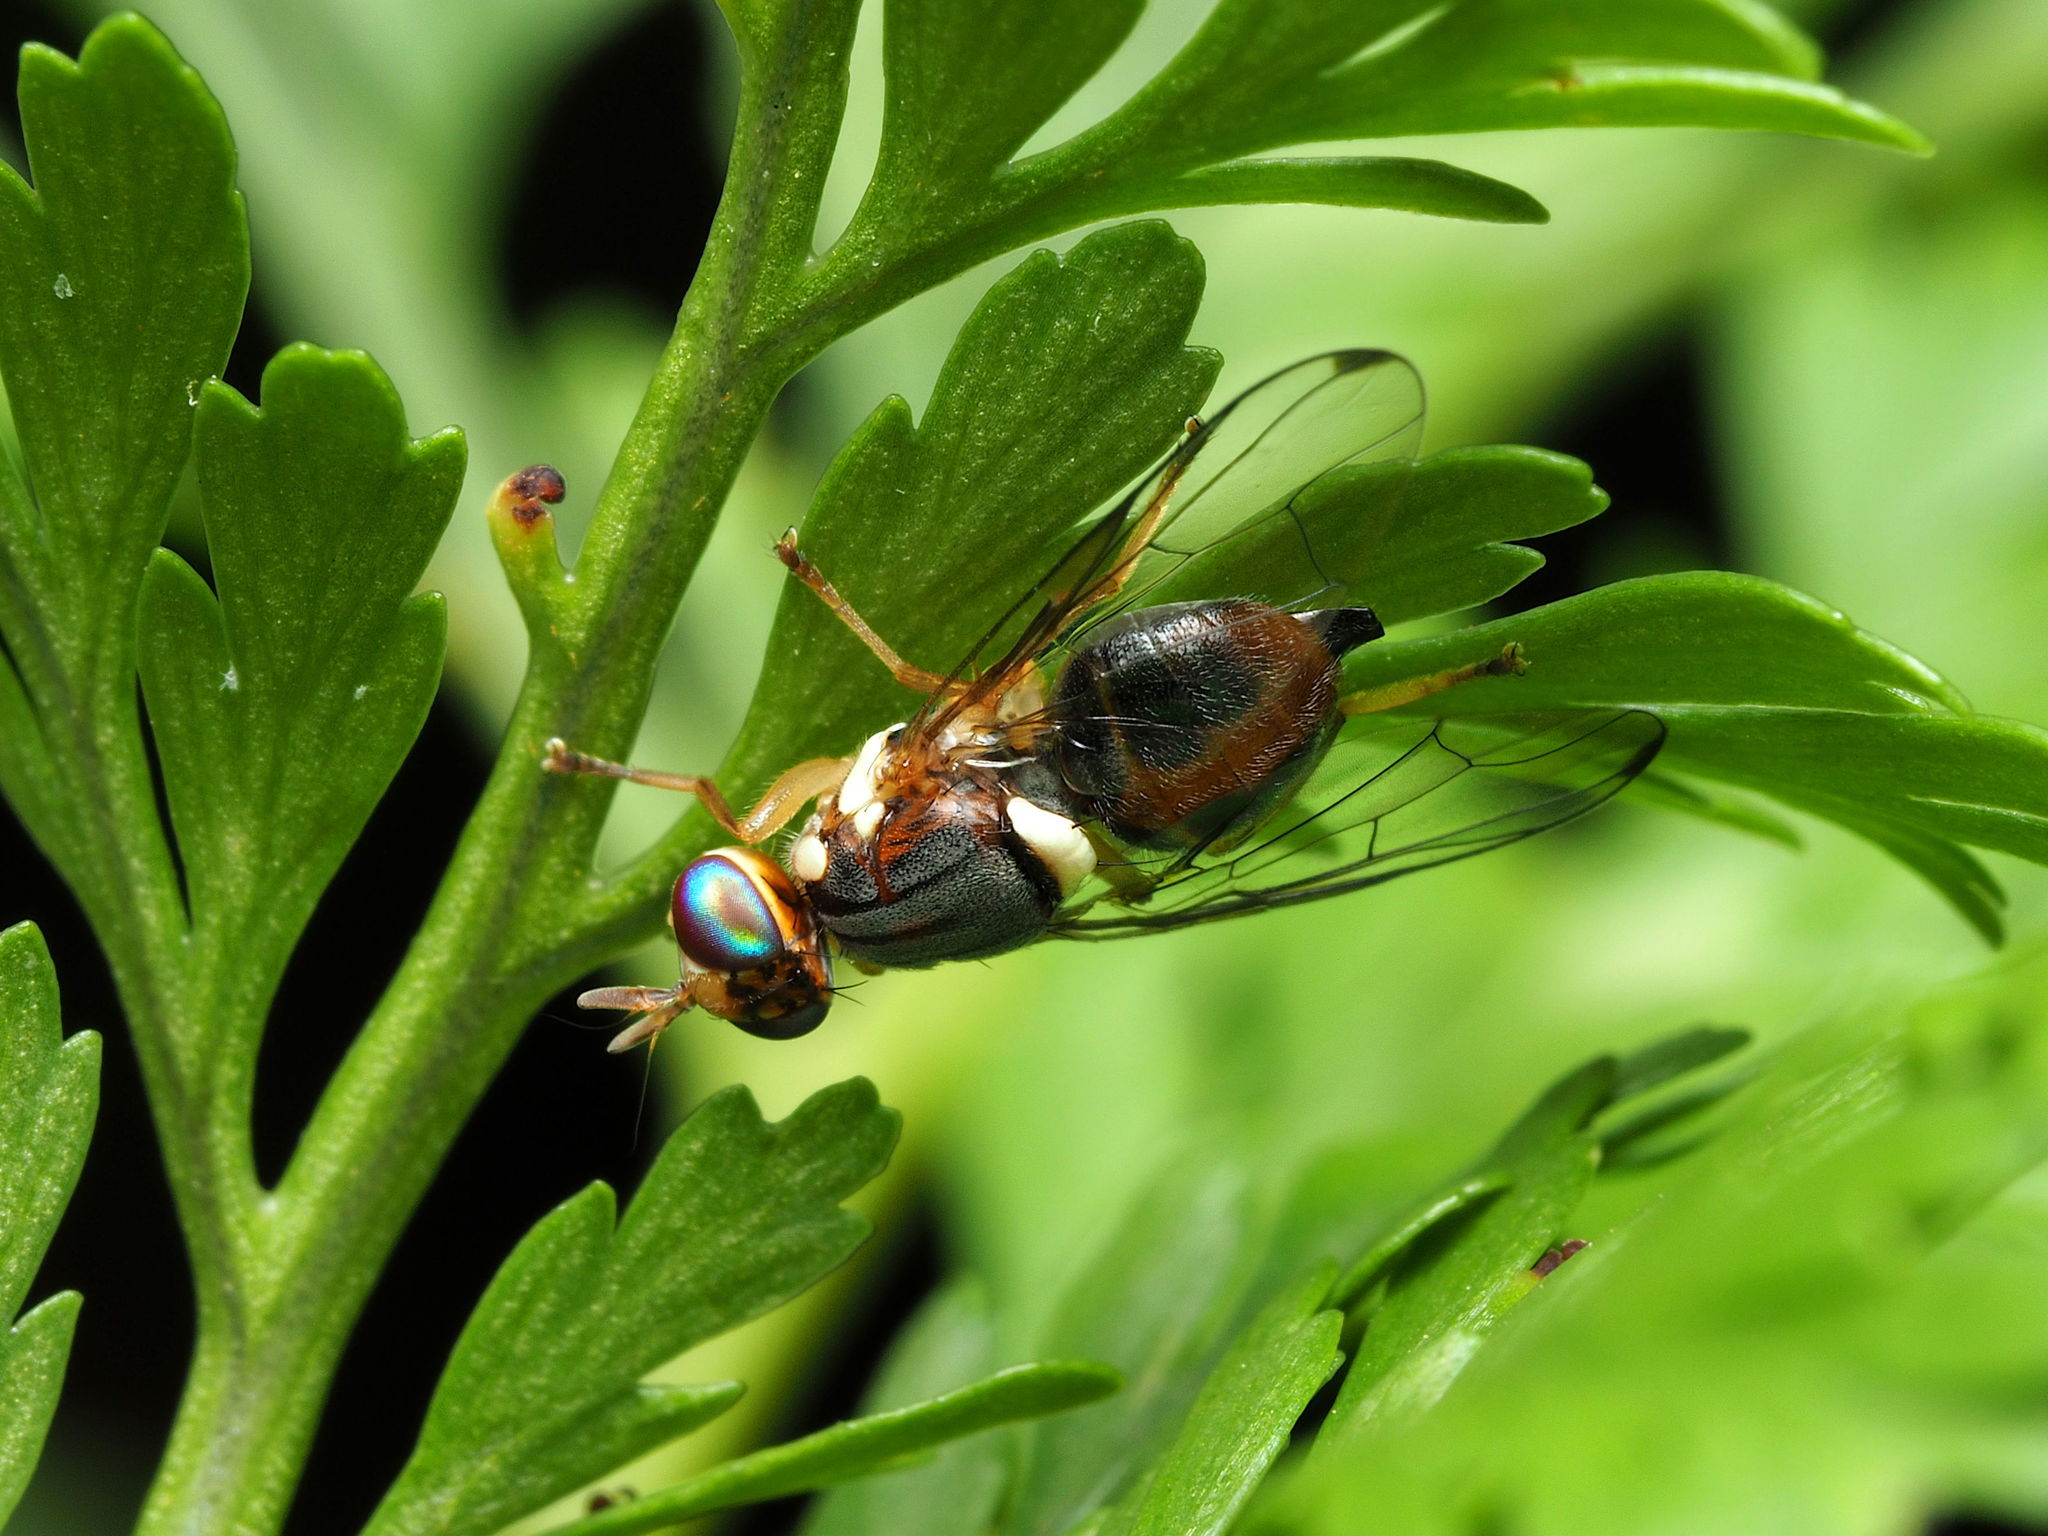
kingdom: Animalia
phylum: Arthropoda
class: Insecta
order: Diptera
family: Tephritidae
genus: Bactrocera
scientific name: Bactrocera oleae
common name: Olive fruit fly
